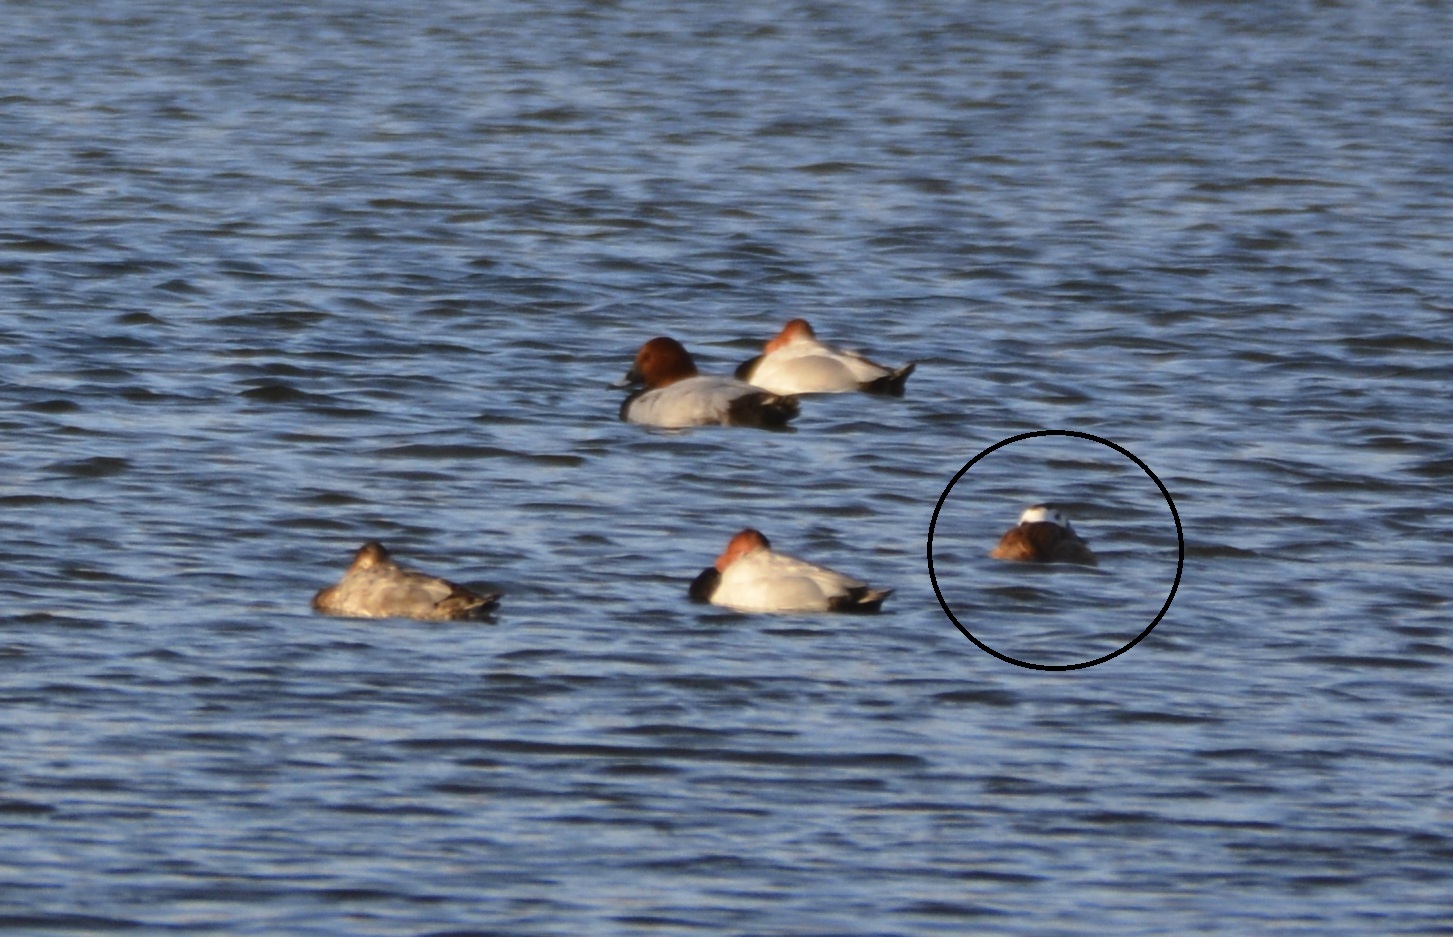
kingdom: Animalia
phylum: Chordata
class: Aves
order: Anseriformes
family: Anatidae
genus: Oxyura
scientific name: Oxyura leucocephala
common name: White-headed duck
